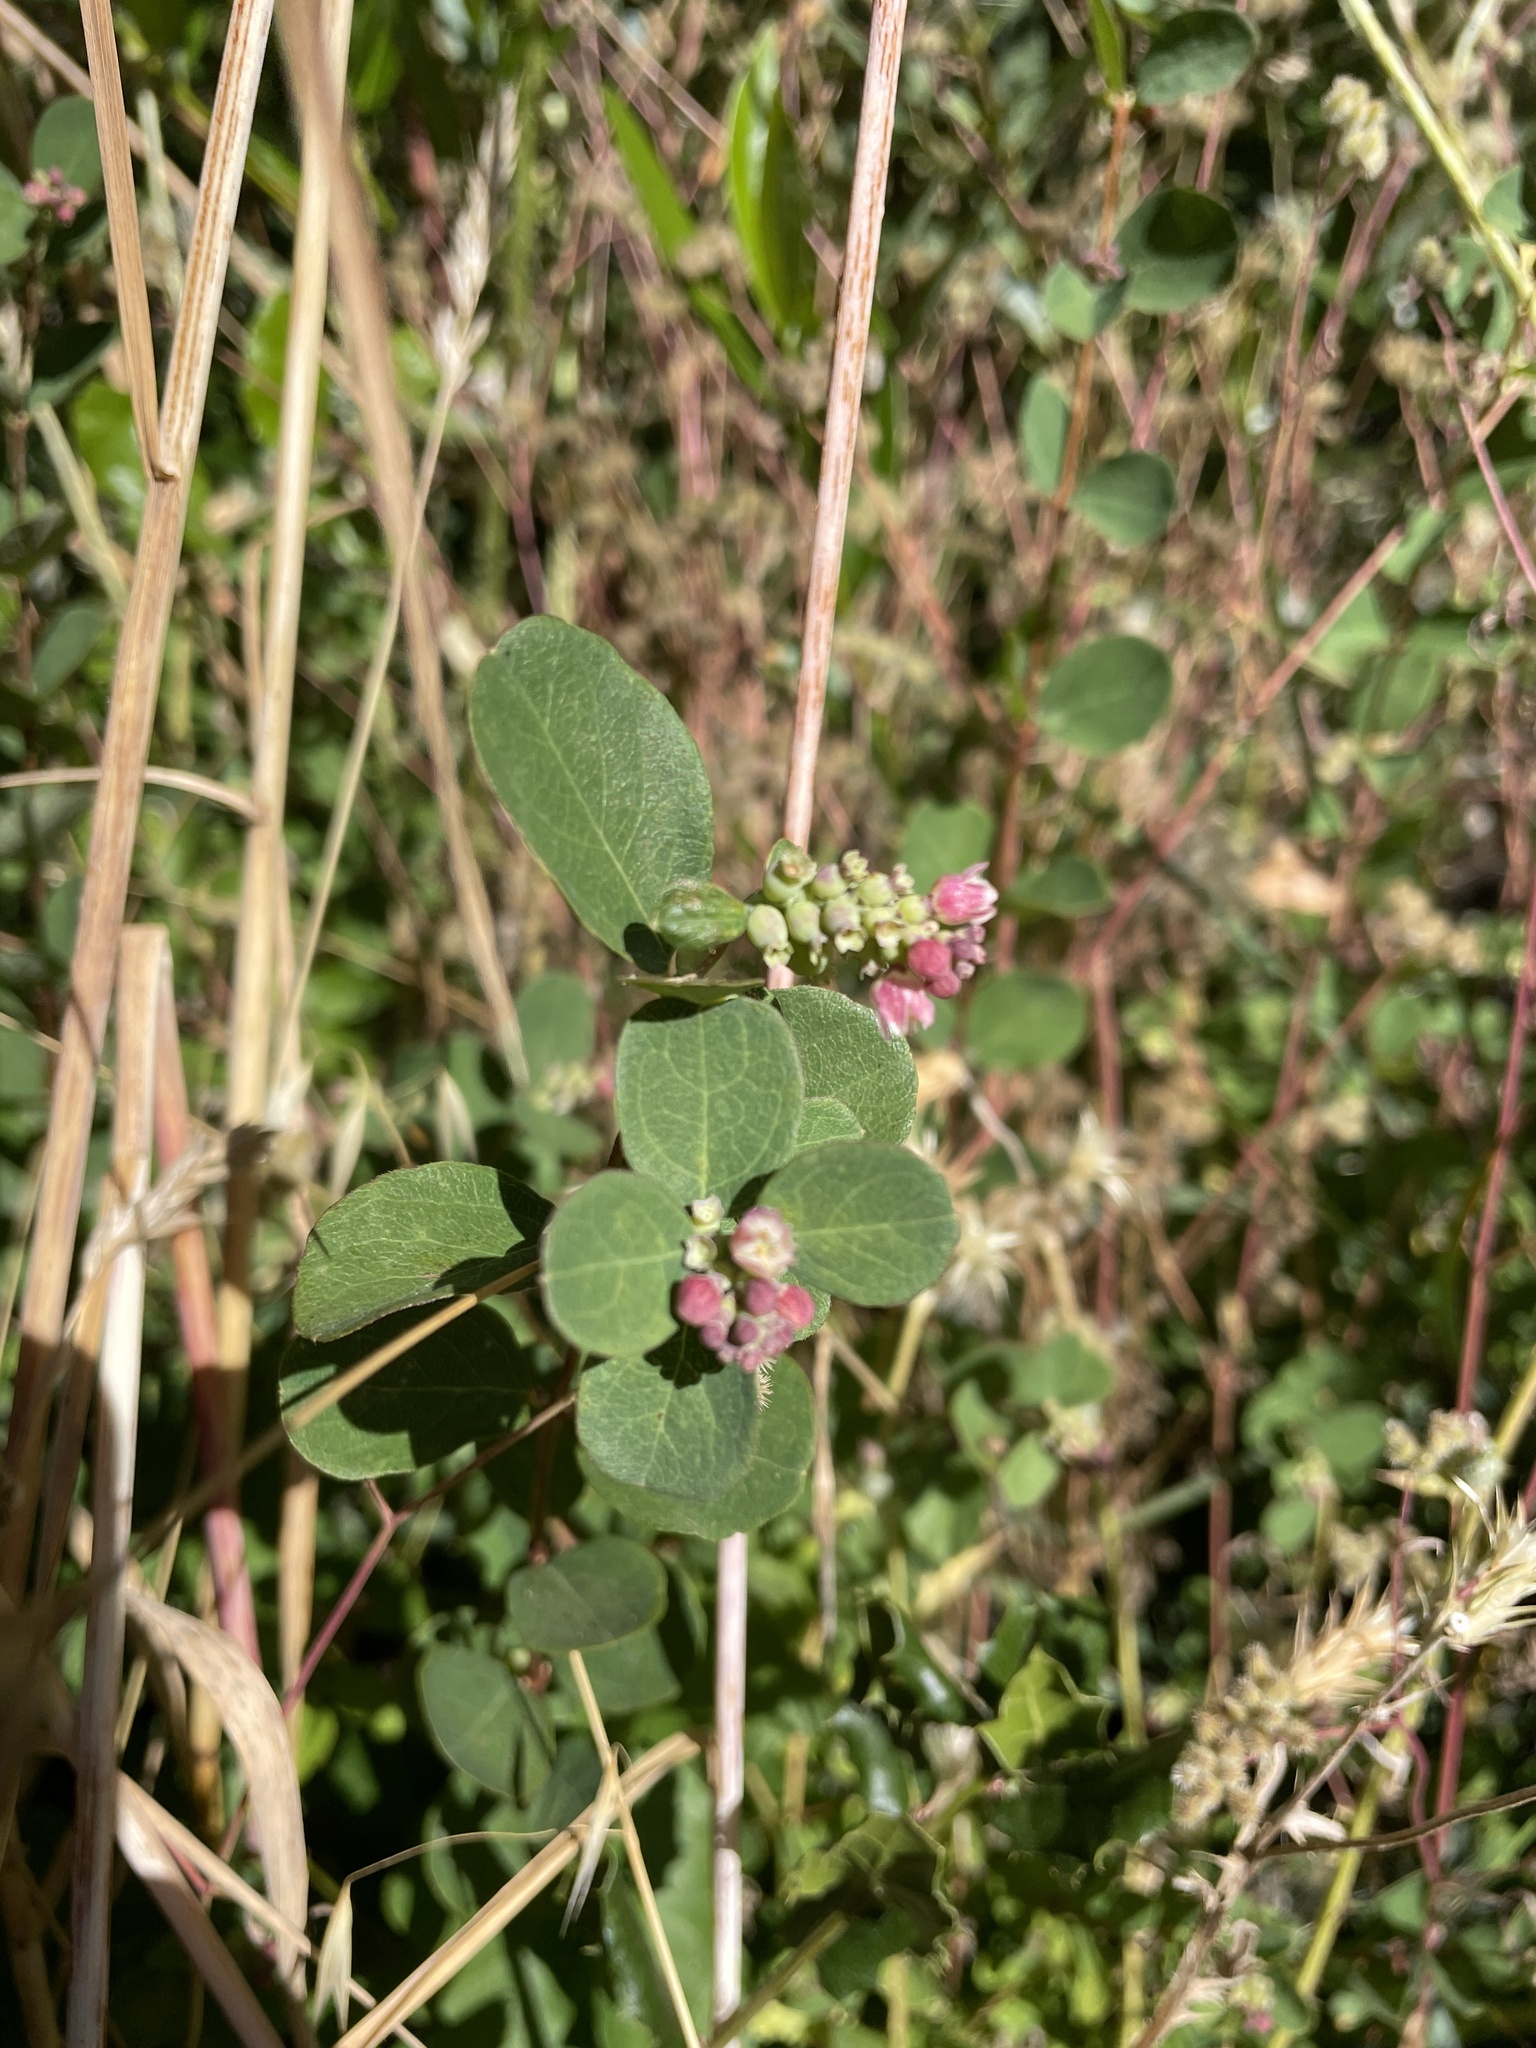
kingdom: Plantae
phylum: Tracheophyta
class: Magnoliopsida
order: Dipsacales
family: Caprifoliaceae
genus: Symphoricarpos
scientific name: Symphoricarpos albus
